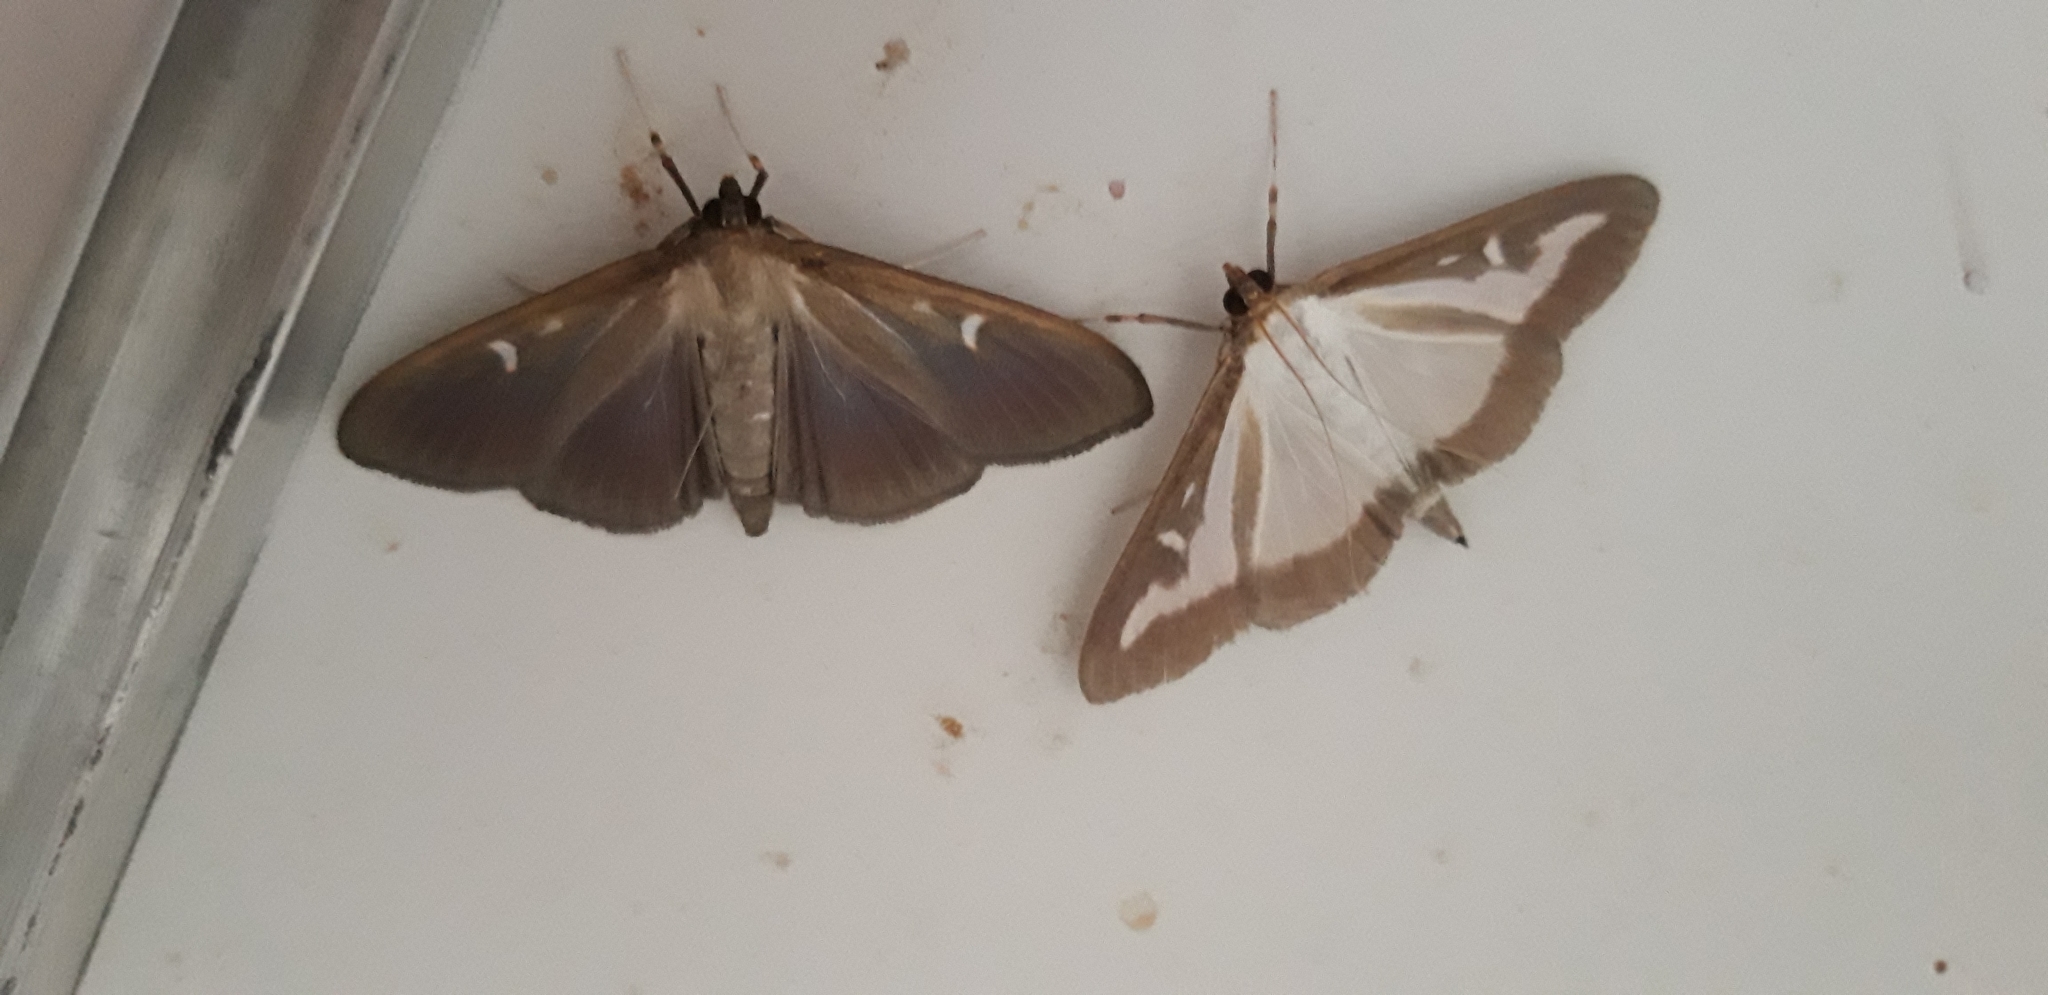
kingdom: Animalia
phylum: Arthropoda
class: Insecta
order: Lepidoptera
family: Crambidae
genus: Cydalima
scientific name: Cydalima perspectalis
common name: Box tree moth
